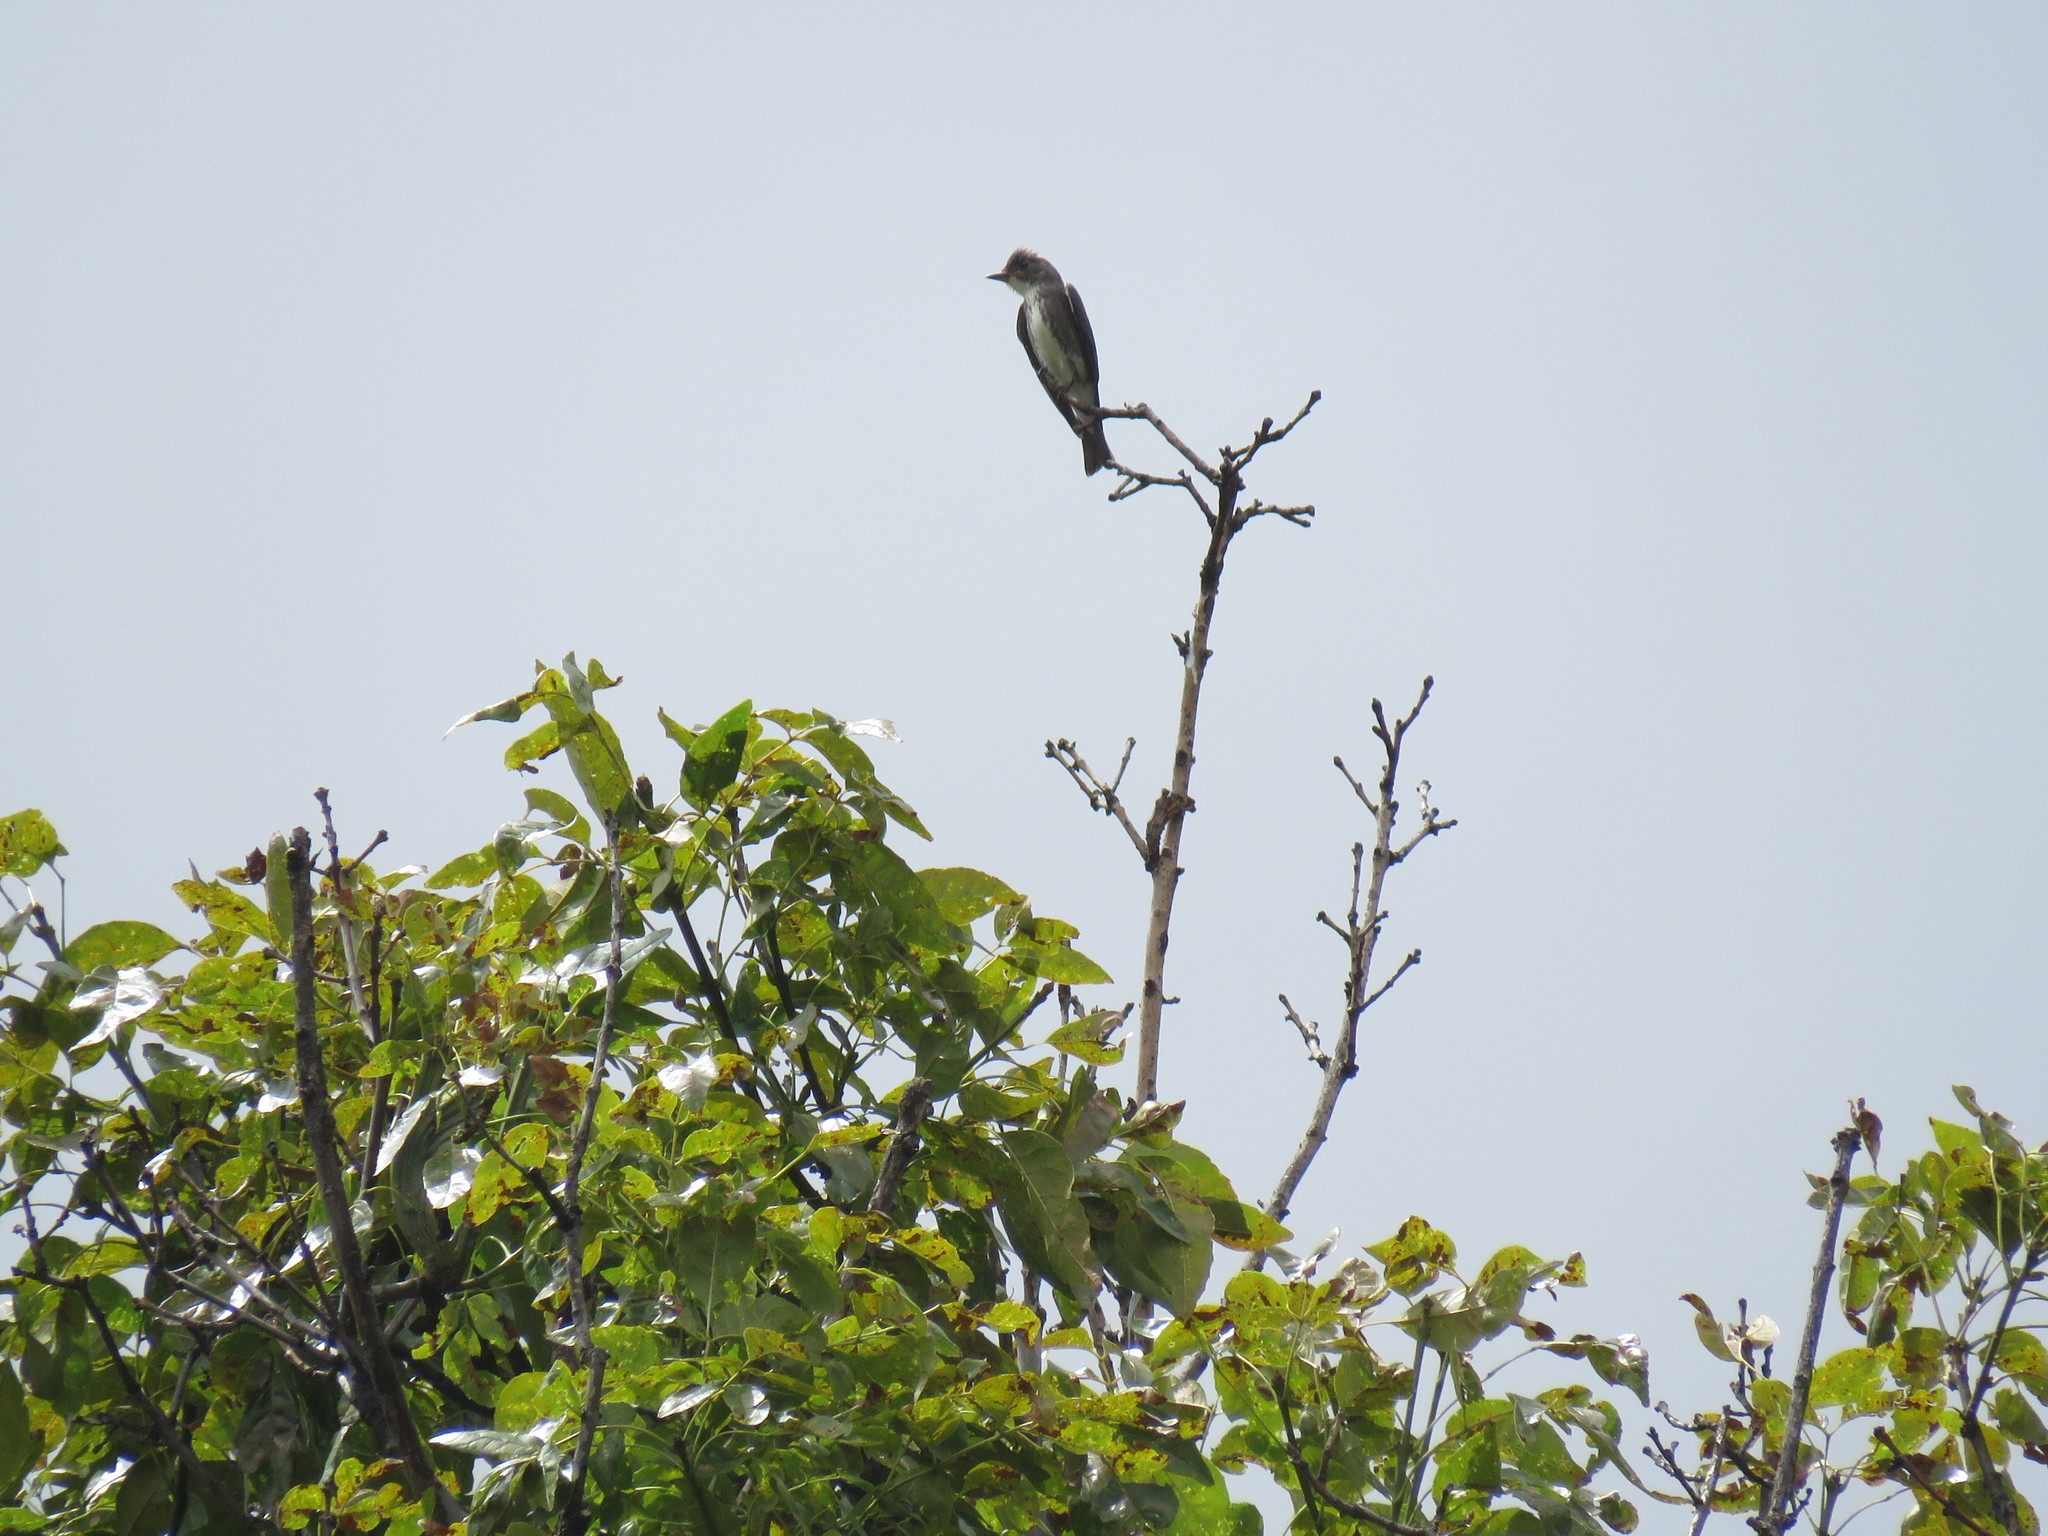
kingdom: Animalia
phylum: Chordata
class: Aves
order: Passeriformes
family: Tyrannidae
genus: Contopus
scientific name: Contopus cooperi
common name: Olive-sided flycatcher
